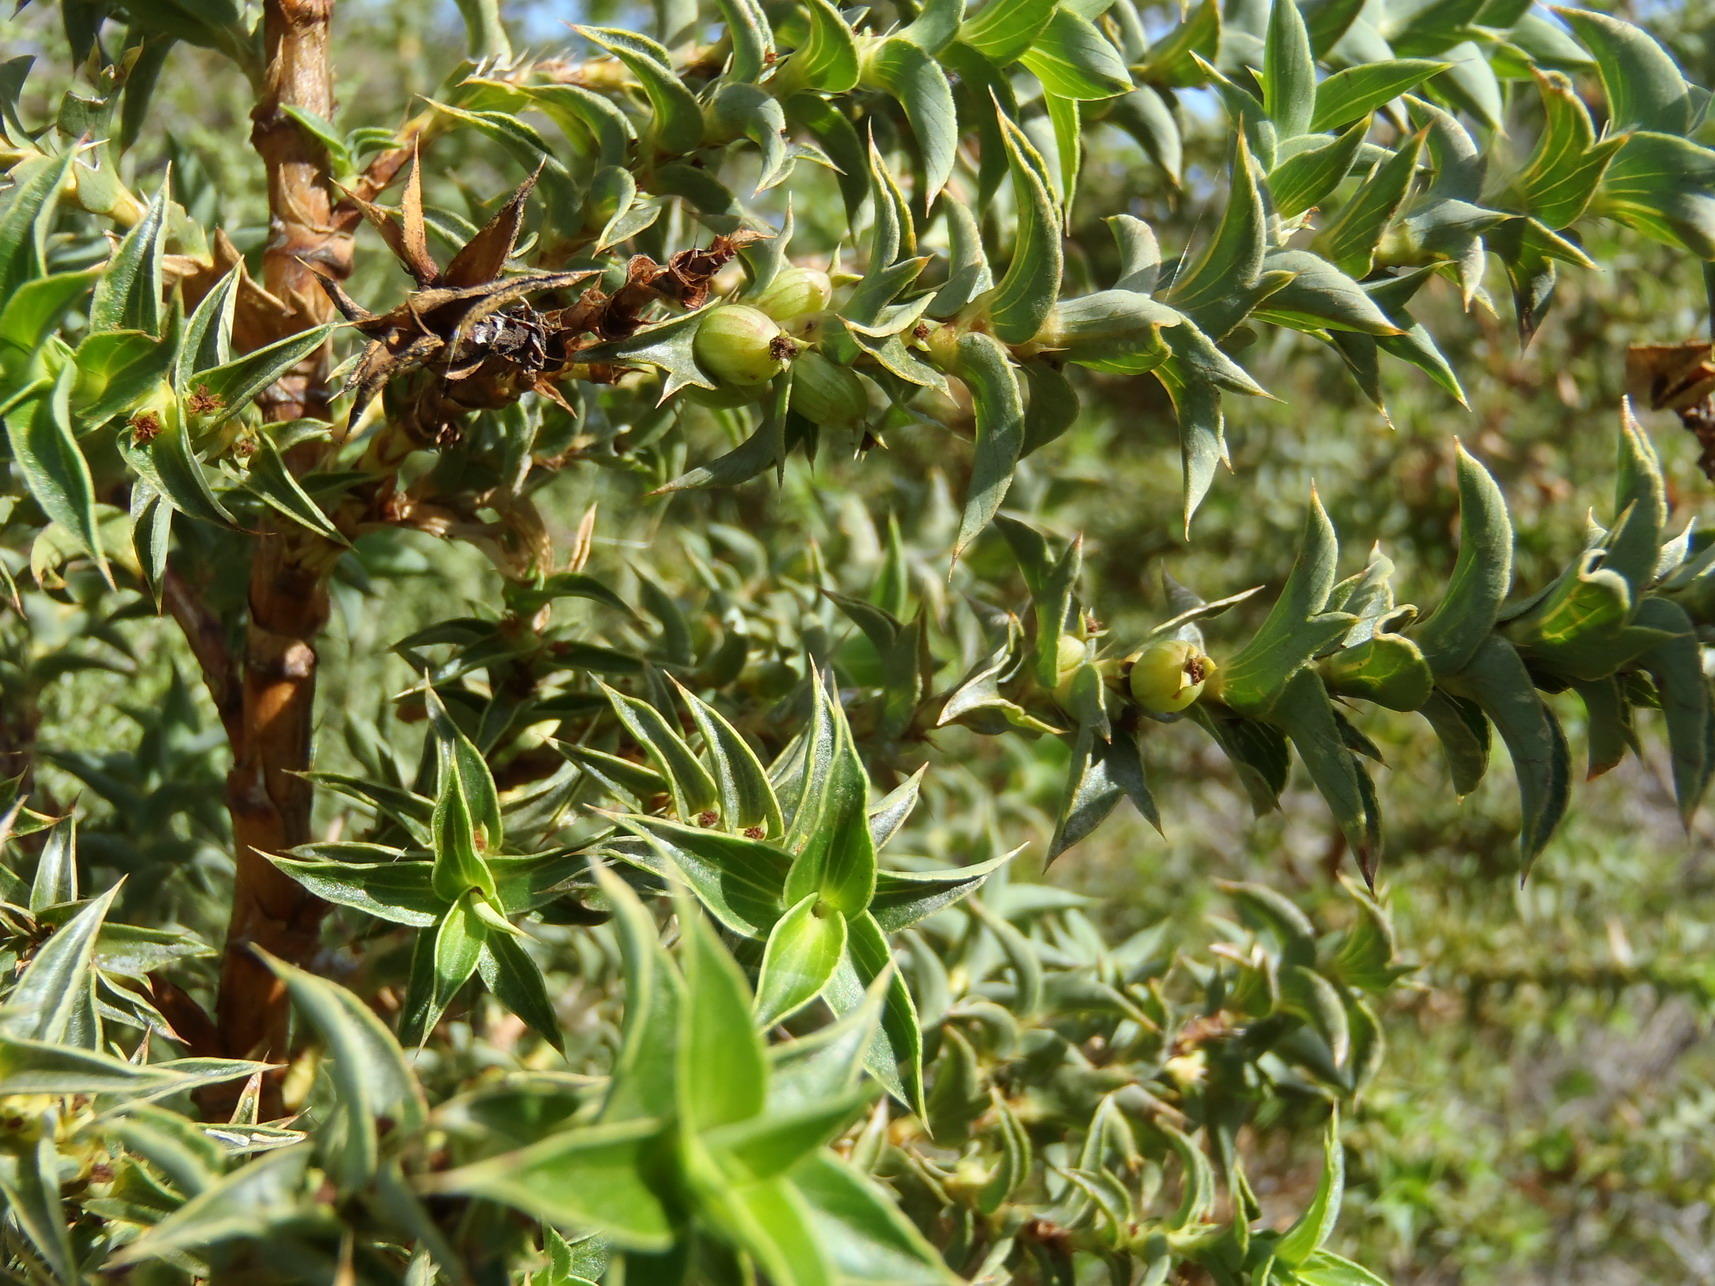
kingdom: Plantae
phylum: Tracheophyta
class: Magnoliopsida
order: Rosales
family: Rosaceae
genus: Cliffortia
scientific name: Cliffortia ilicifolia
